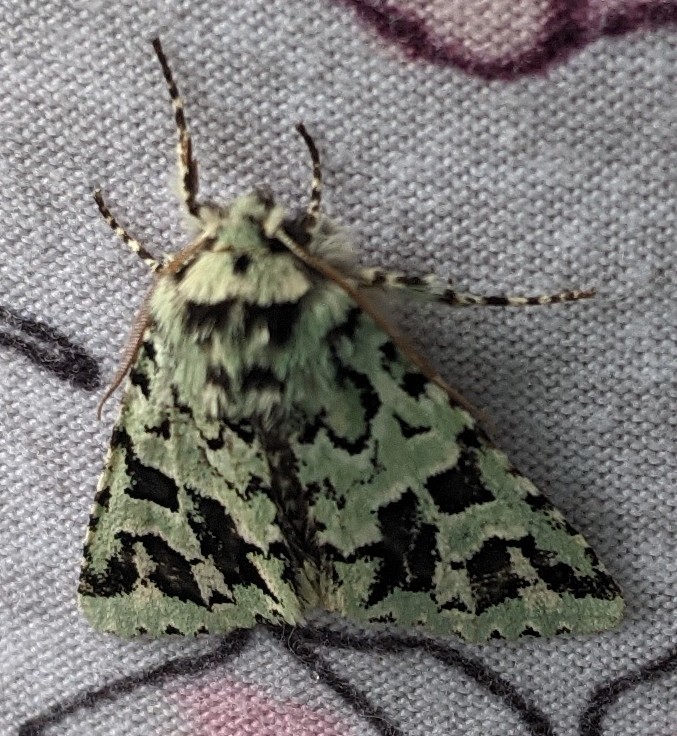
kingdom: Animalia
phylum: Arthropoda
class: Insecta
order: Lepidoptera
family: Noctuidae
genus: Feralia
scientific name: Feralia comstocki
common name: Comstock's sallow
